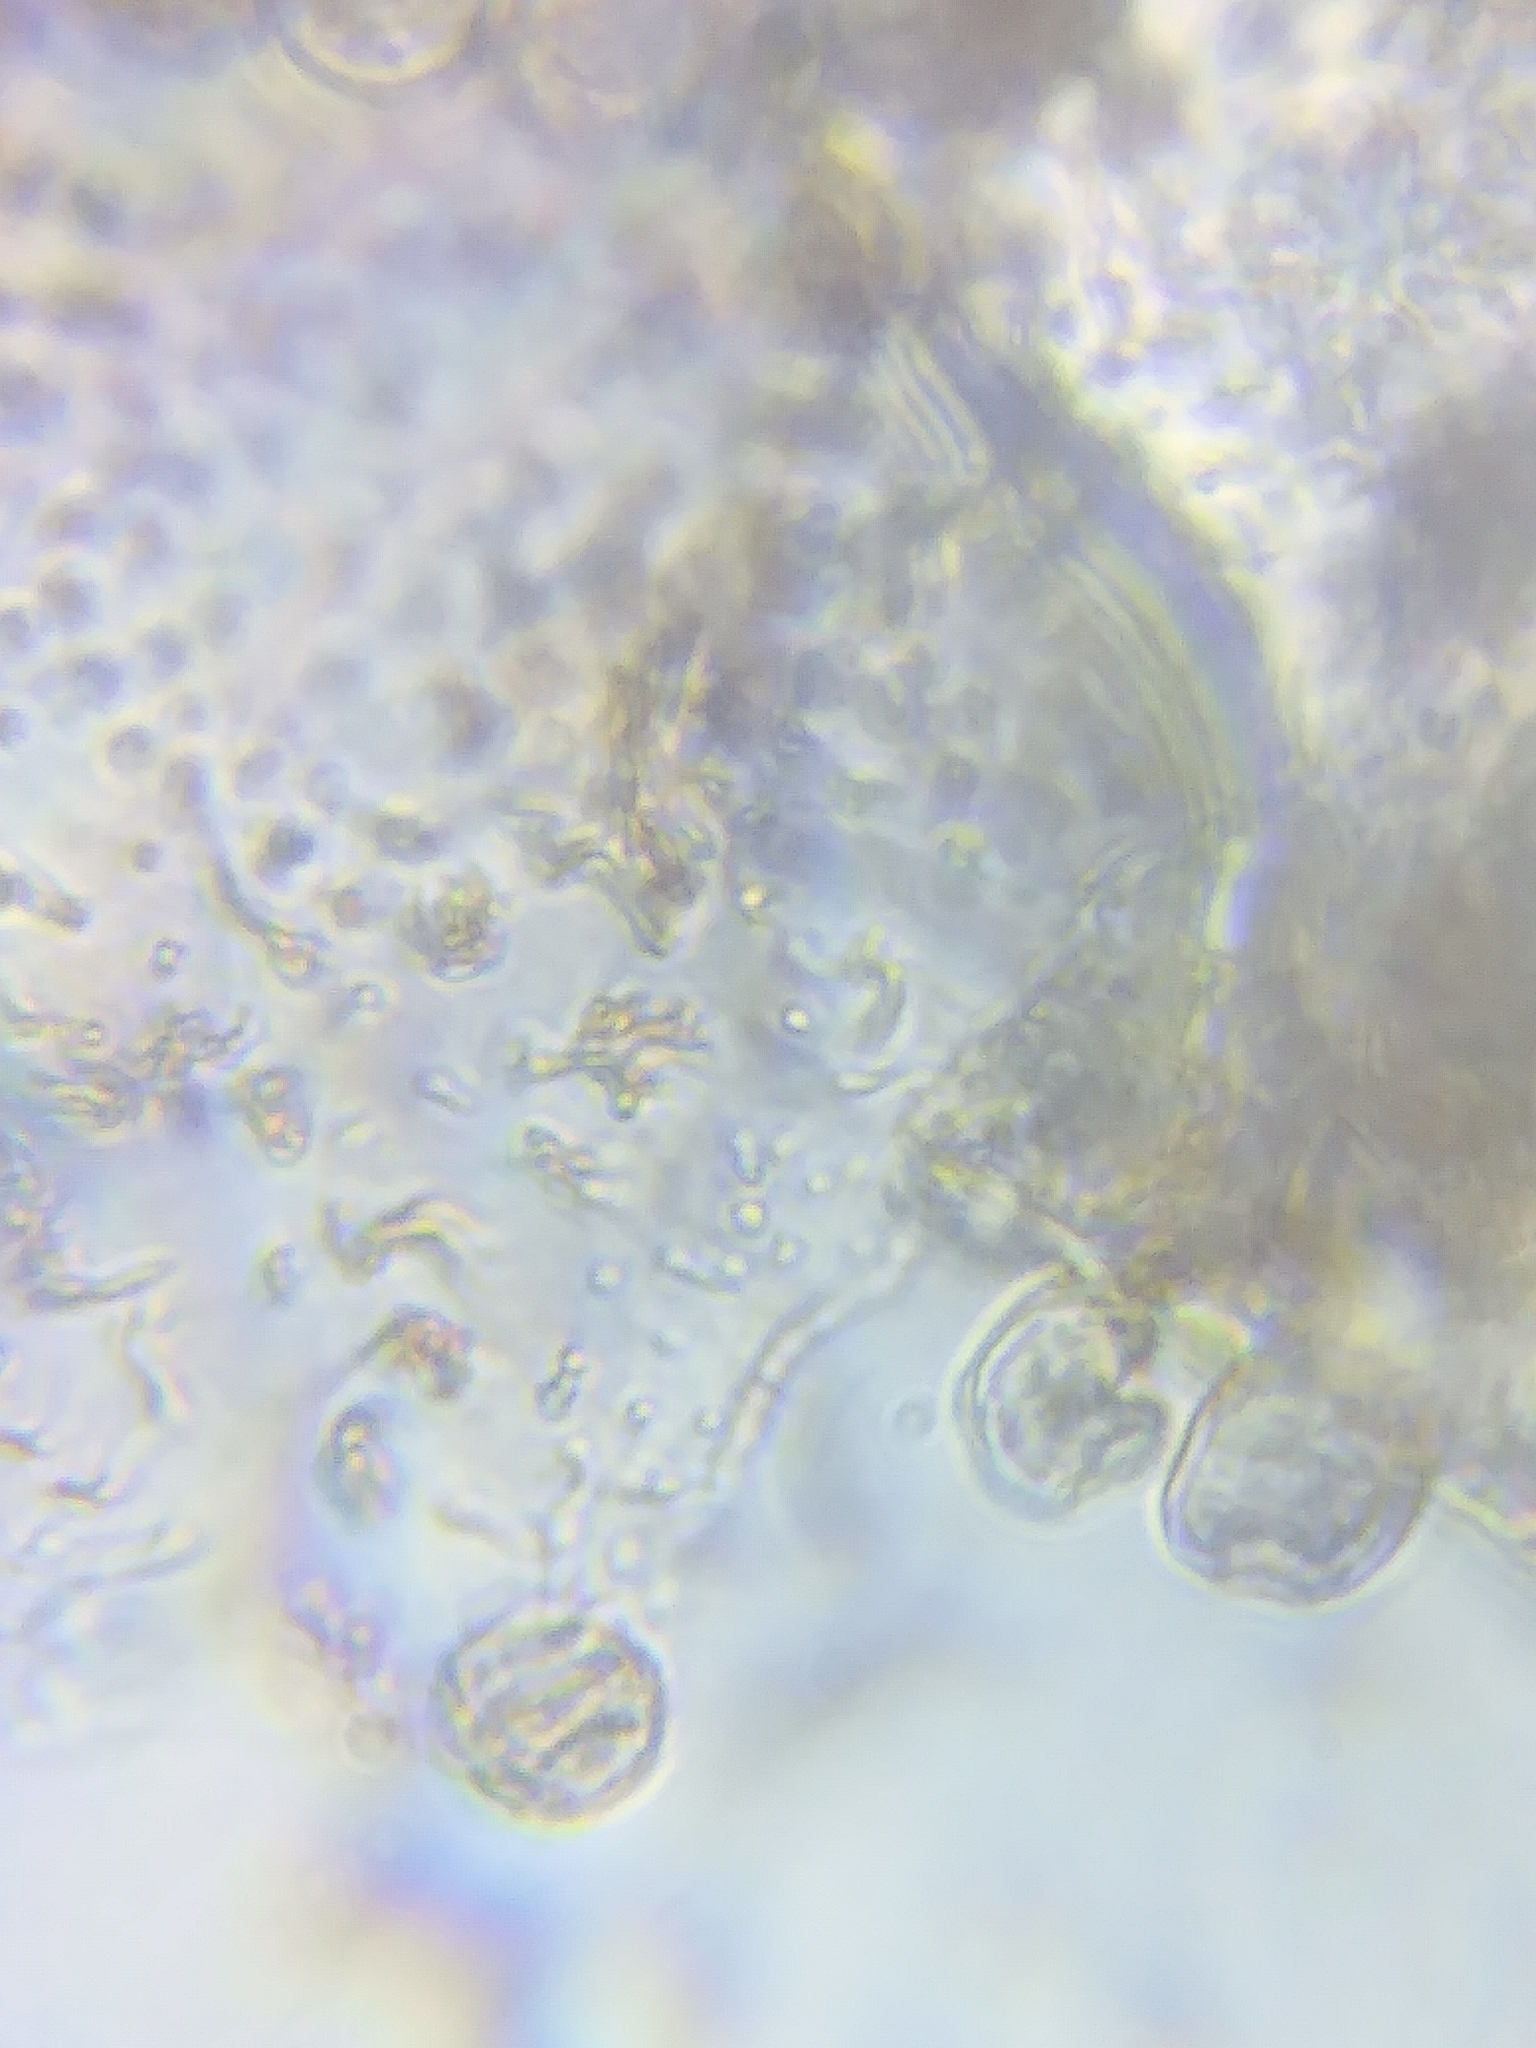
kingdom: Protozoa
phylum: Mycetozoa
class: Myxomycetes
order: Trichiales
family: Arcyriaceae
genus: Arcyria
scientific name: Arcyria major
